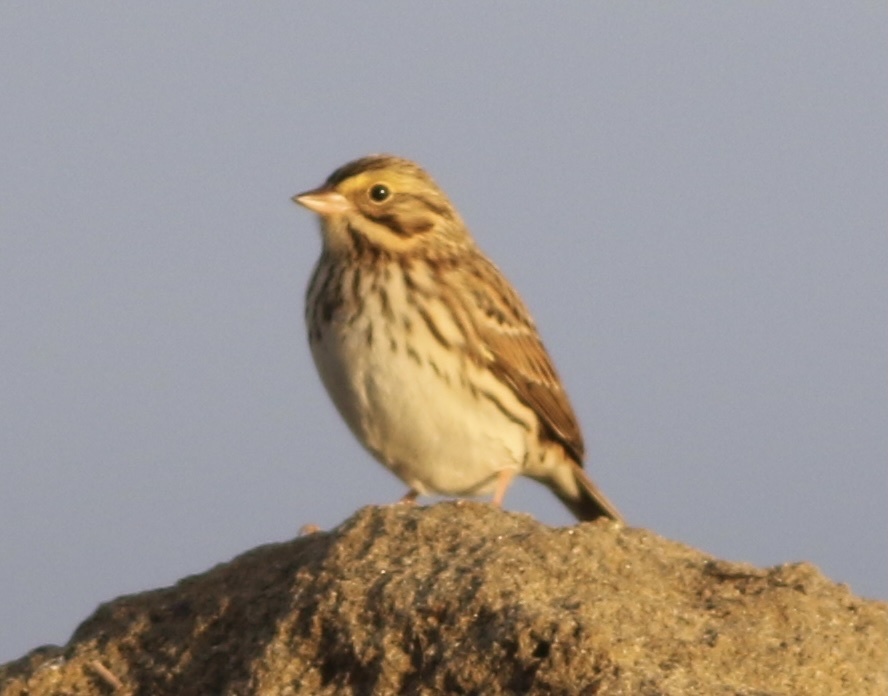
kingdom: Animalia
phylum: Chordata
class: Aves
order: Passeriformes
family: Passerellidae
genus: Passerculus
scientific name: Passerculus sandwichensis
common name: Savannah sparrow
